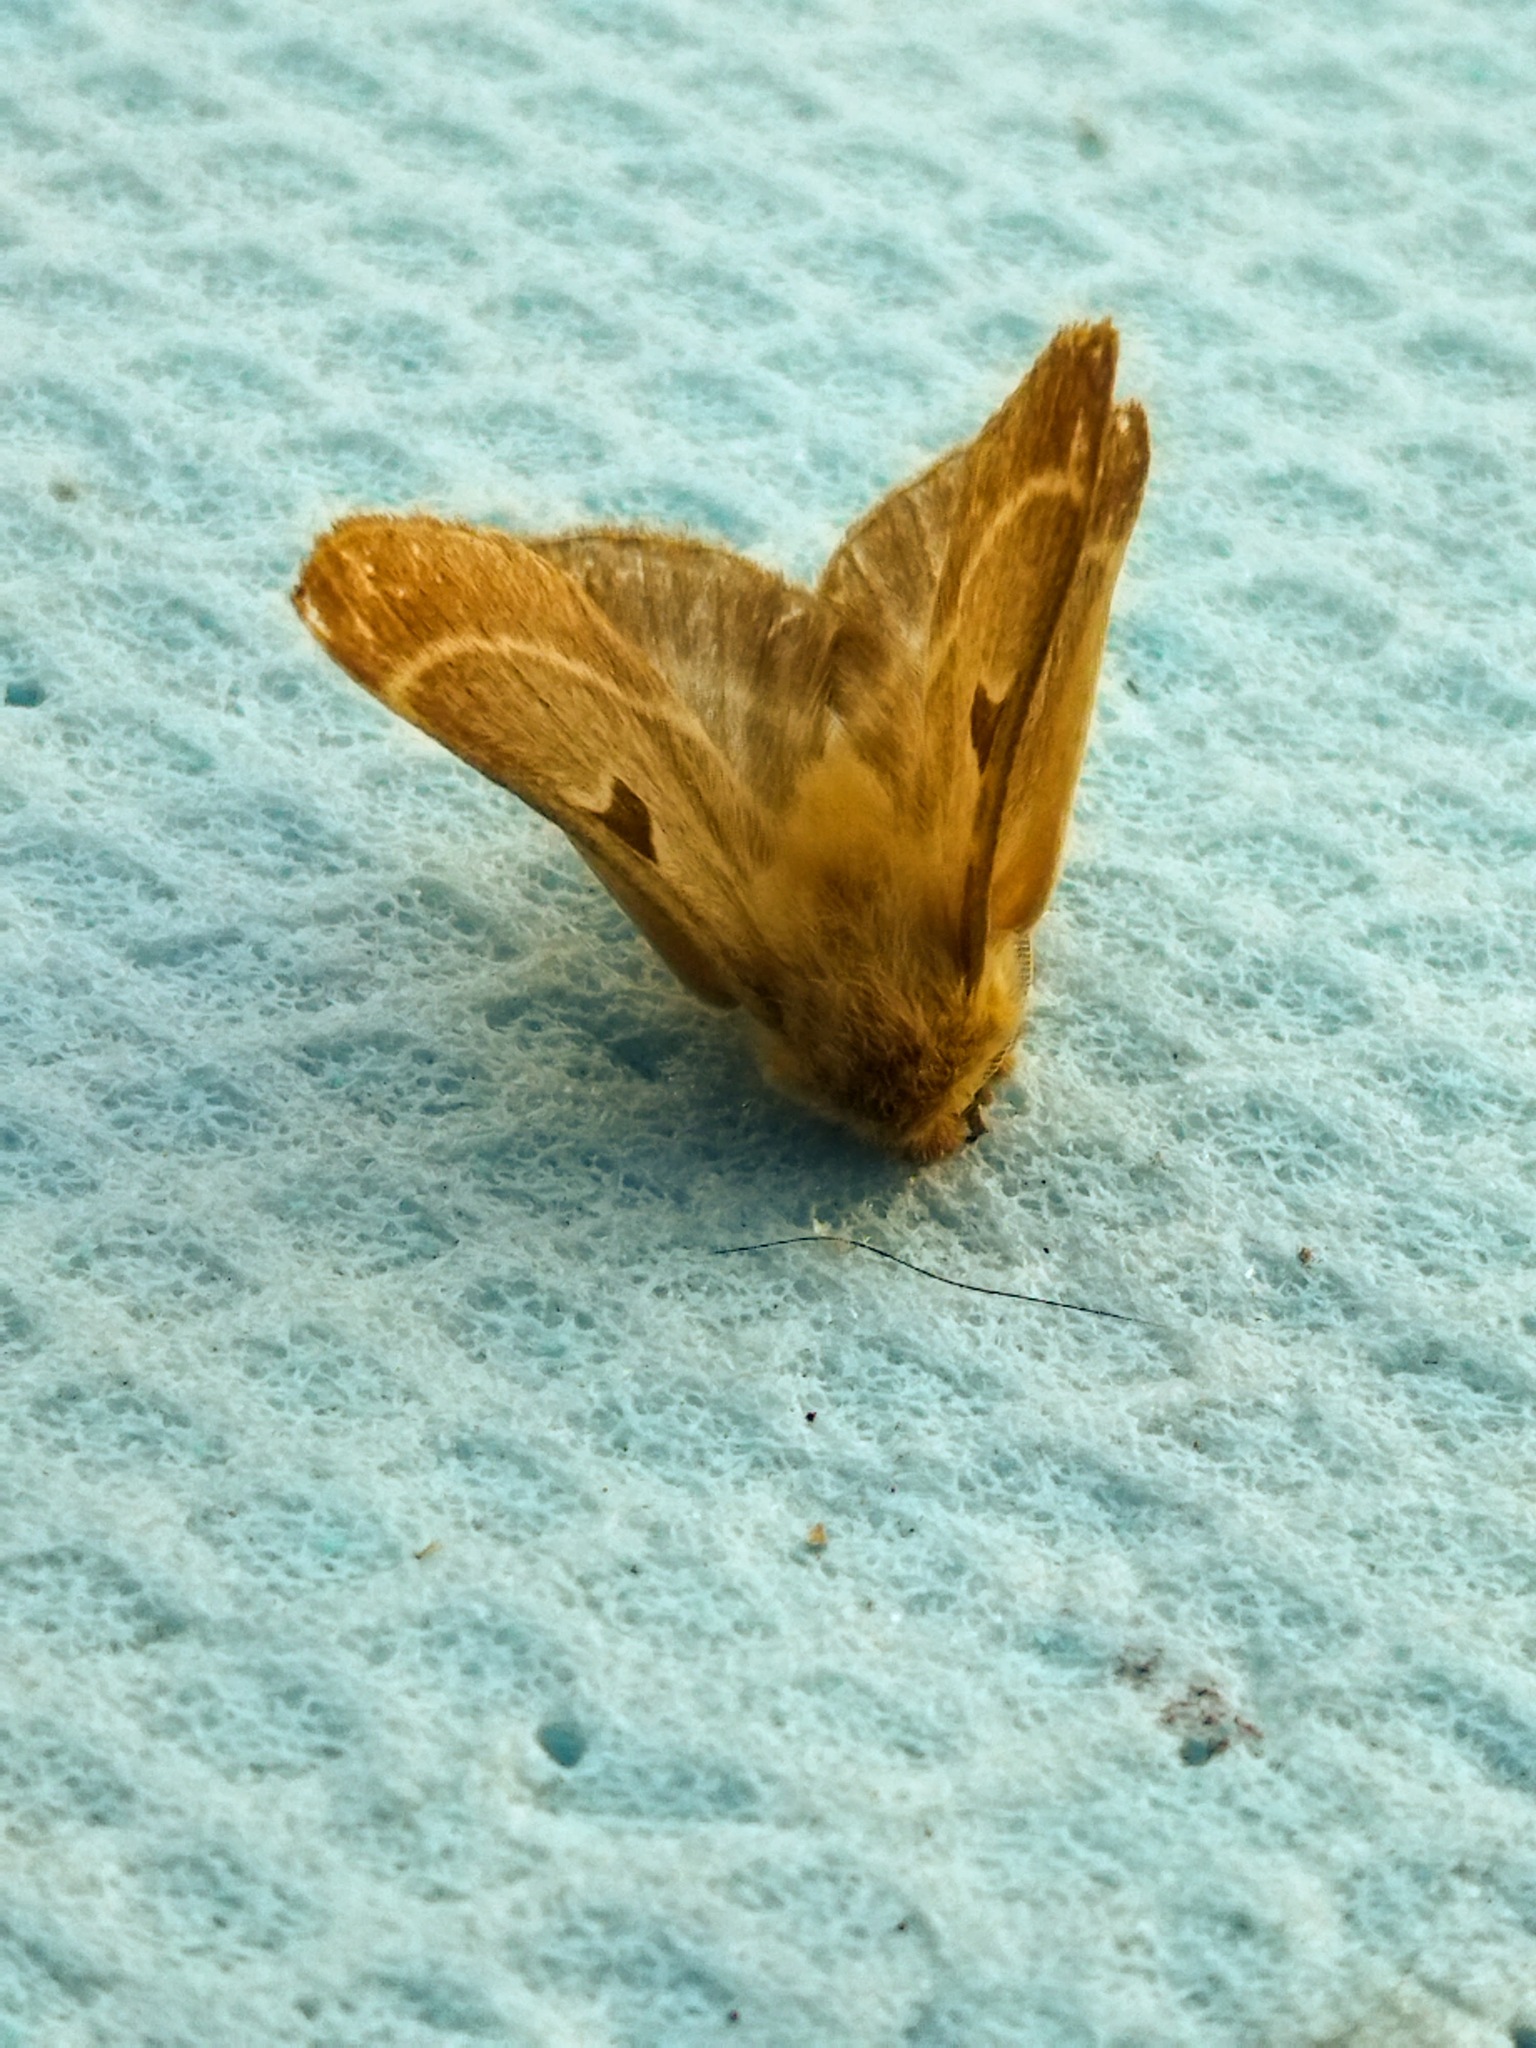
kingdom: Animalia
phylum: Arthropoda
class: Insecta
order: Lepidoptera
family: Brahmaeidae
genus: Lemonia
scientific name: Lemonia balcanica
